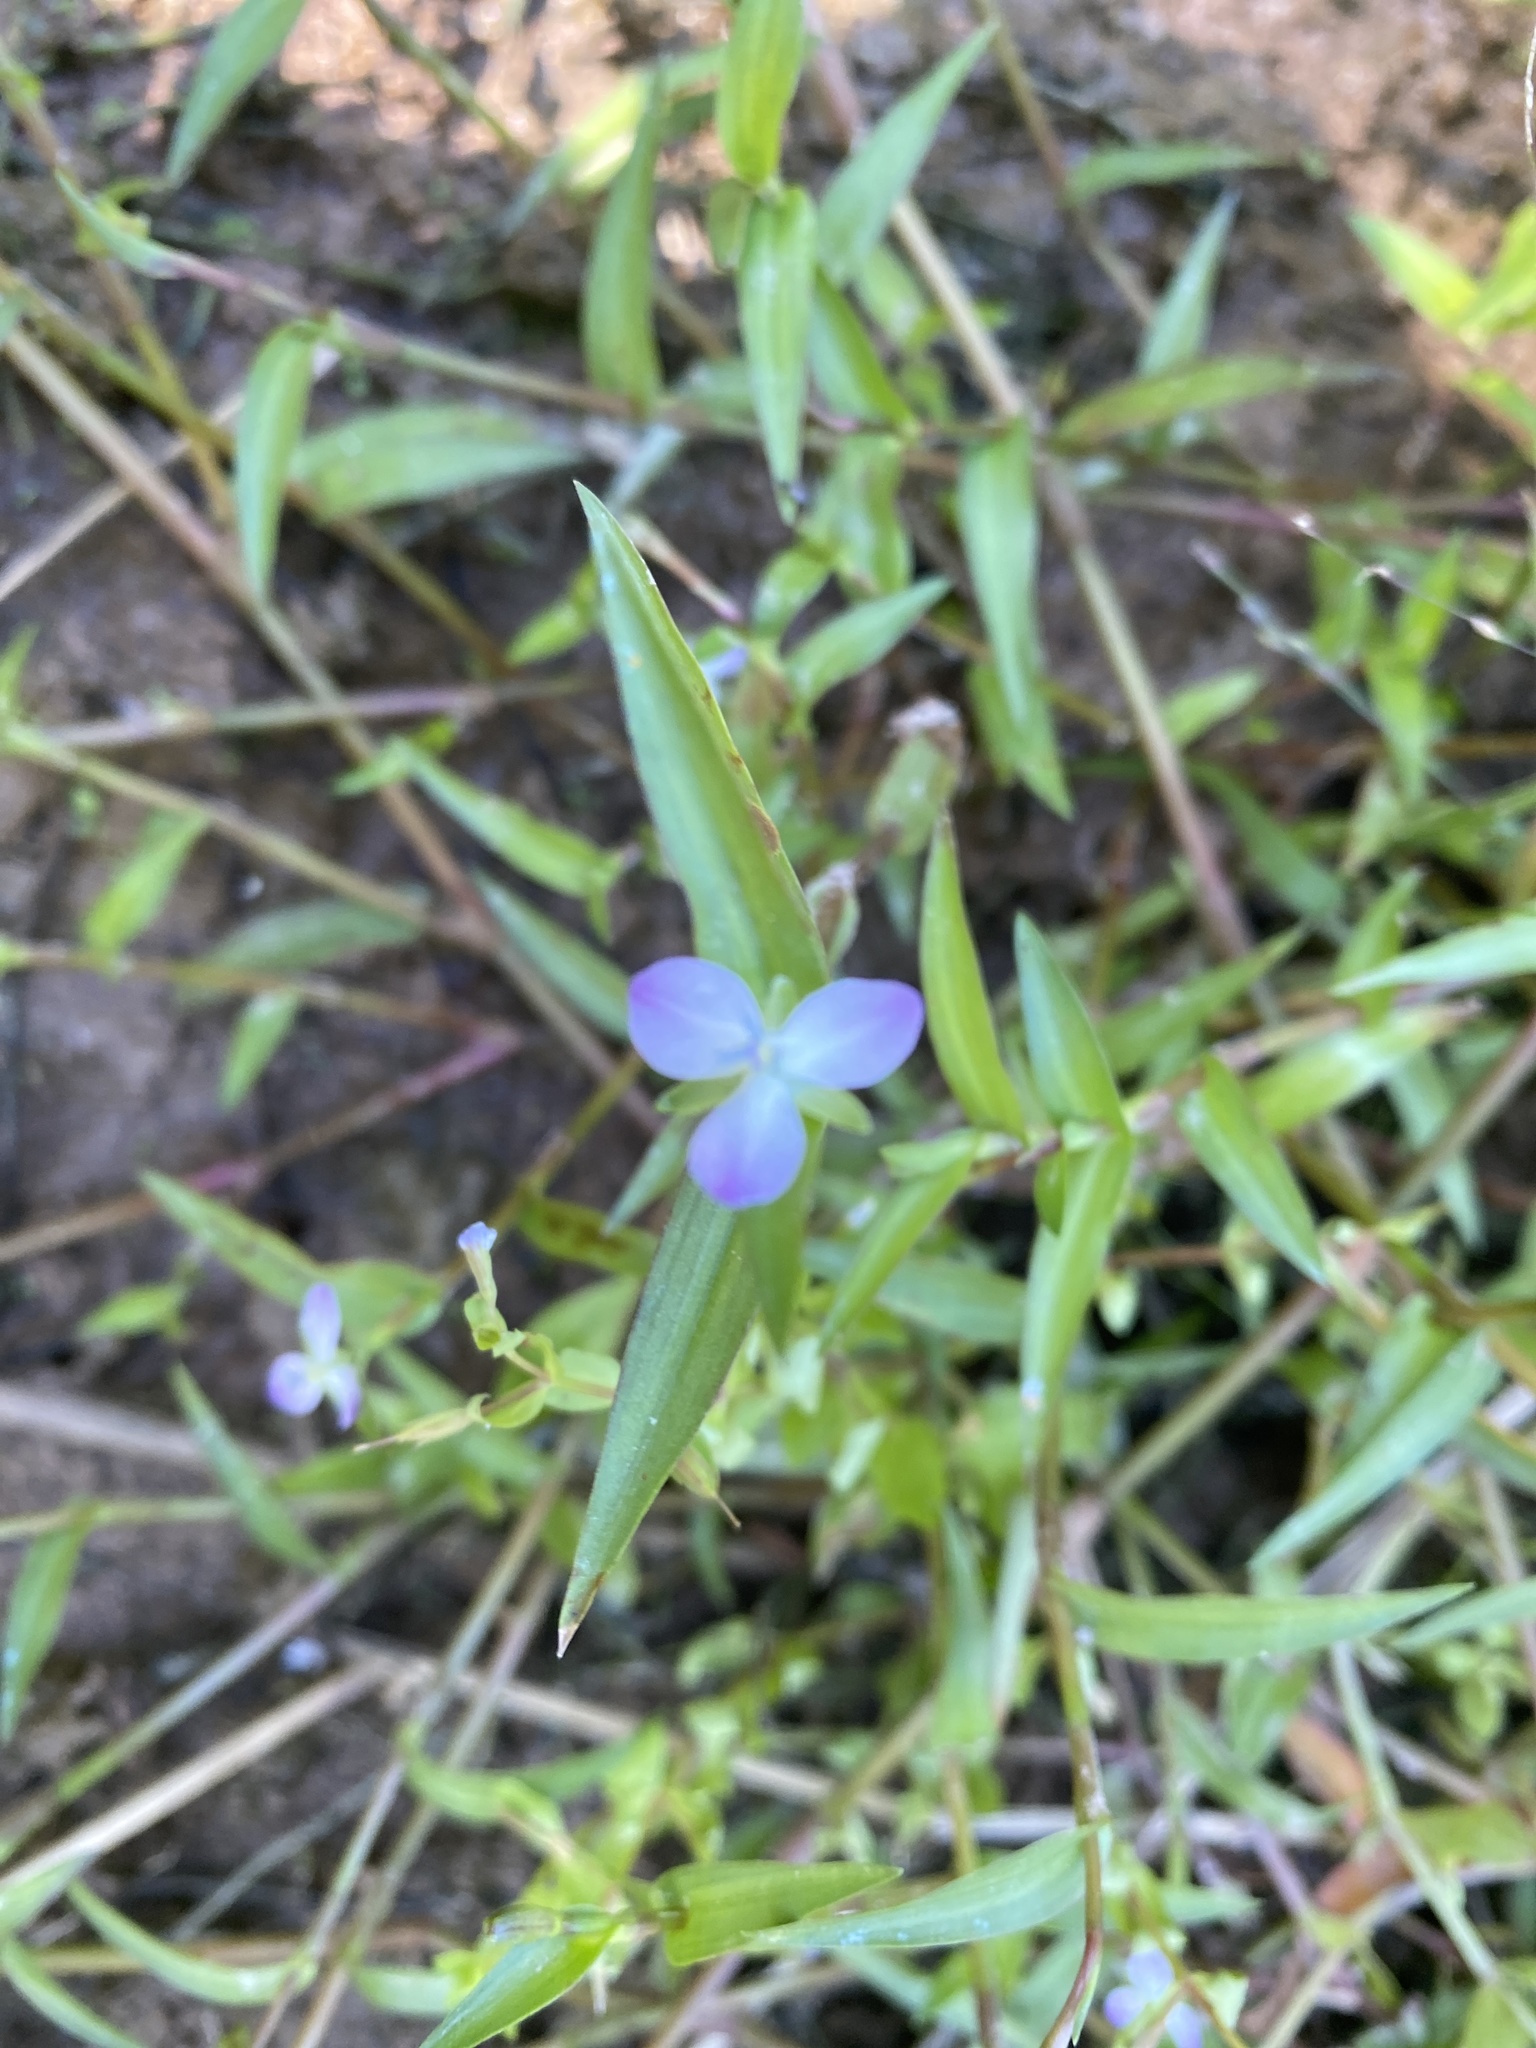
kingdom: Plantae
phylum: Tracheophyta
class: Liliopsida
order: Commelinales
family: Commelinaceae
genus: Murdannia
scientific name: Murdannia keisak
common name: Wartremoving herb
